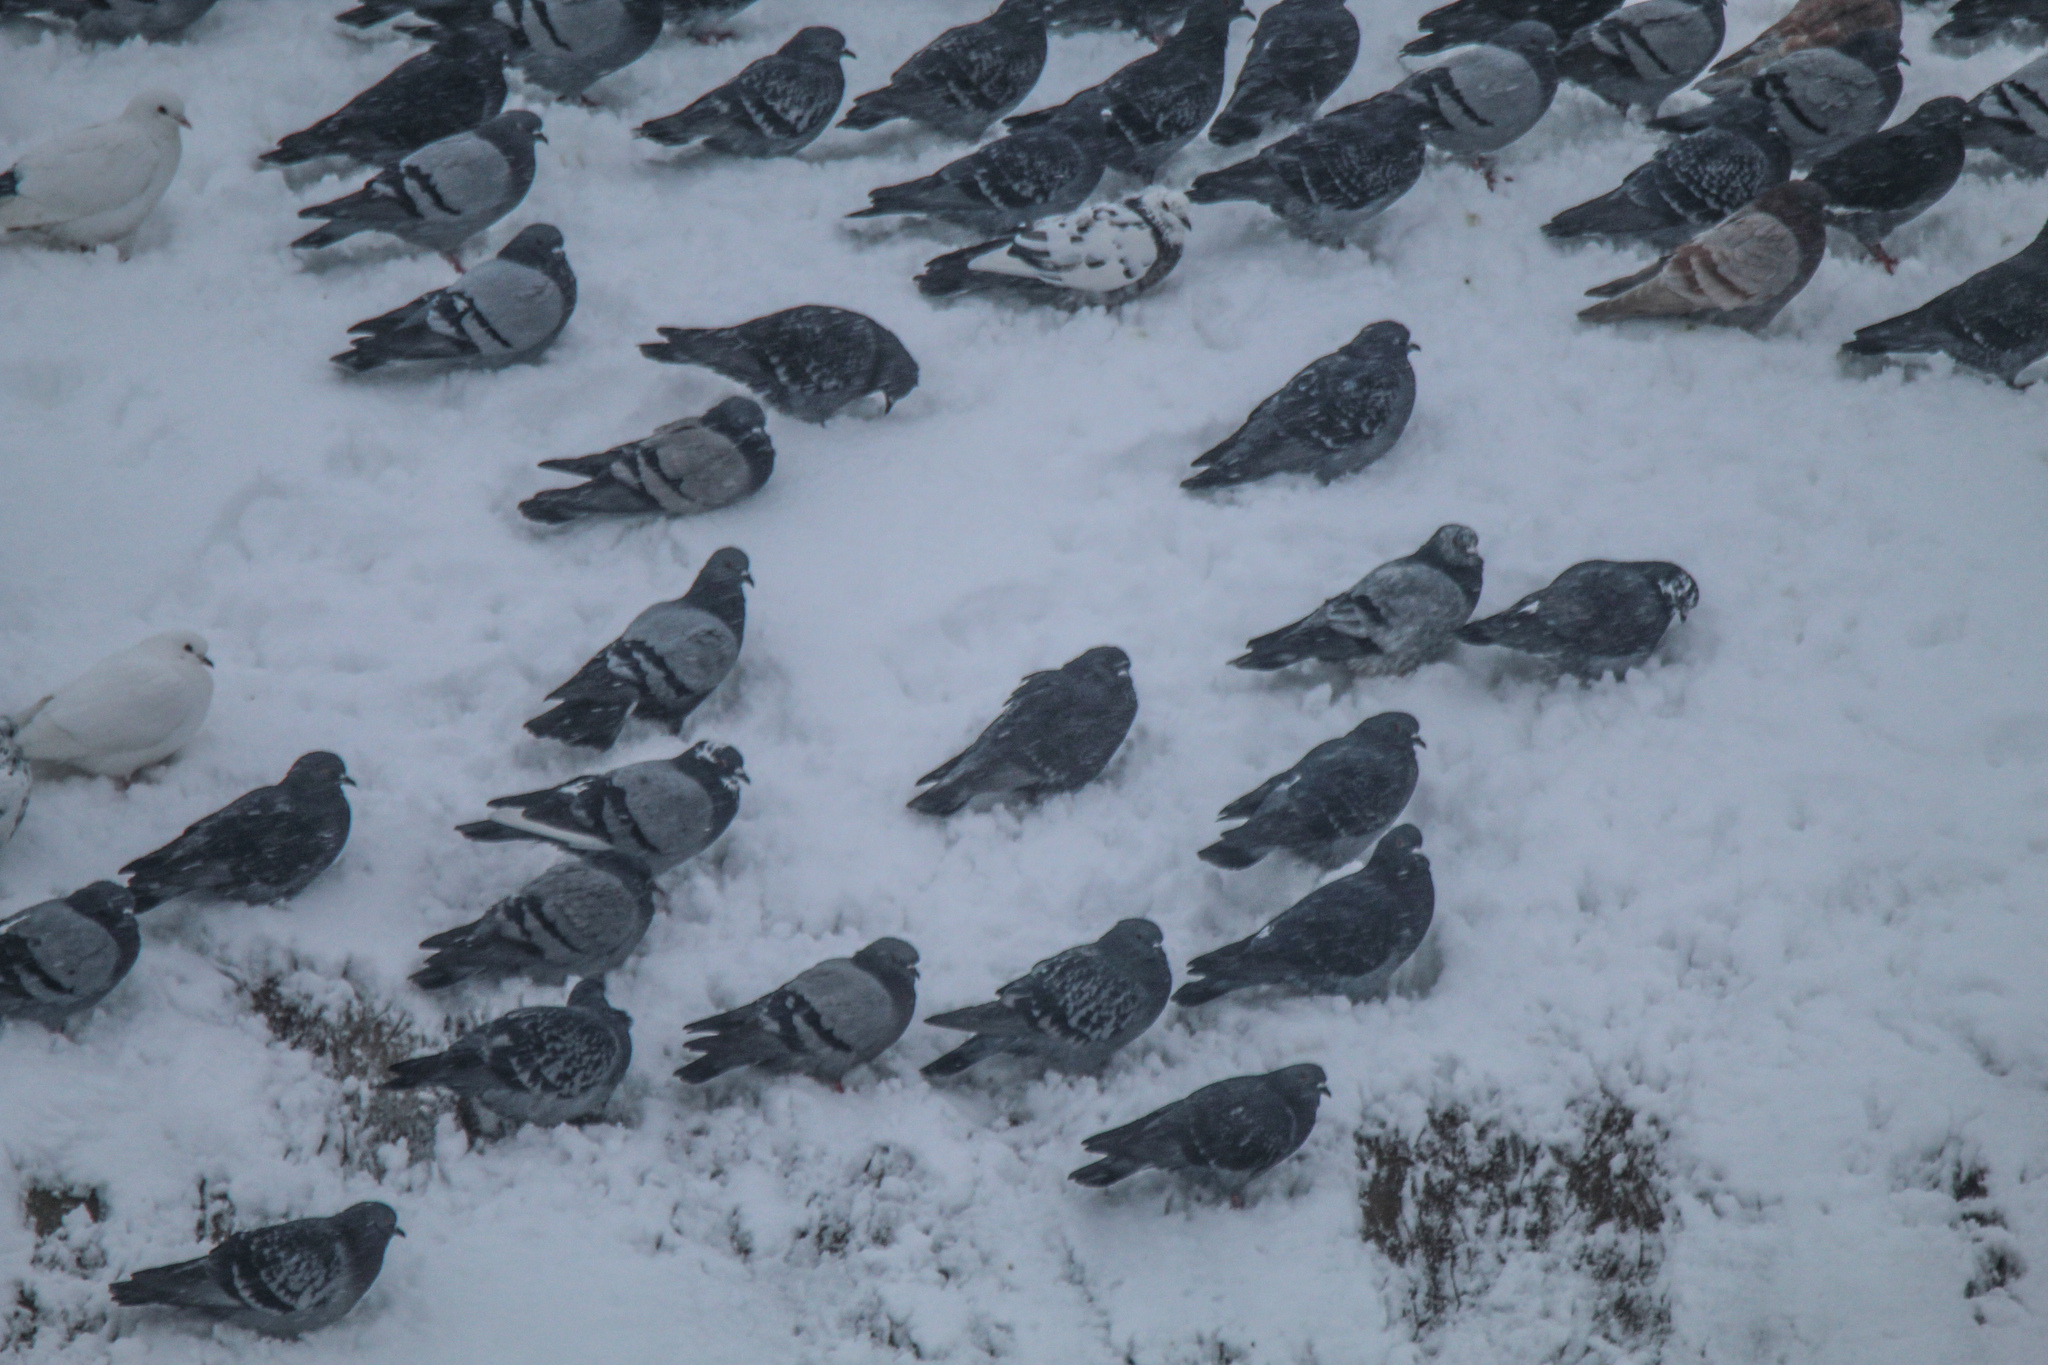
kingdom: Animalia
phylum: Chordata
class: Aves
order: Columbiformes
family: Columbidae
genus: Columba
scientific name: Columba livia
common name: Rock pigeon
